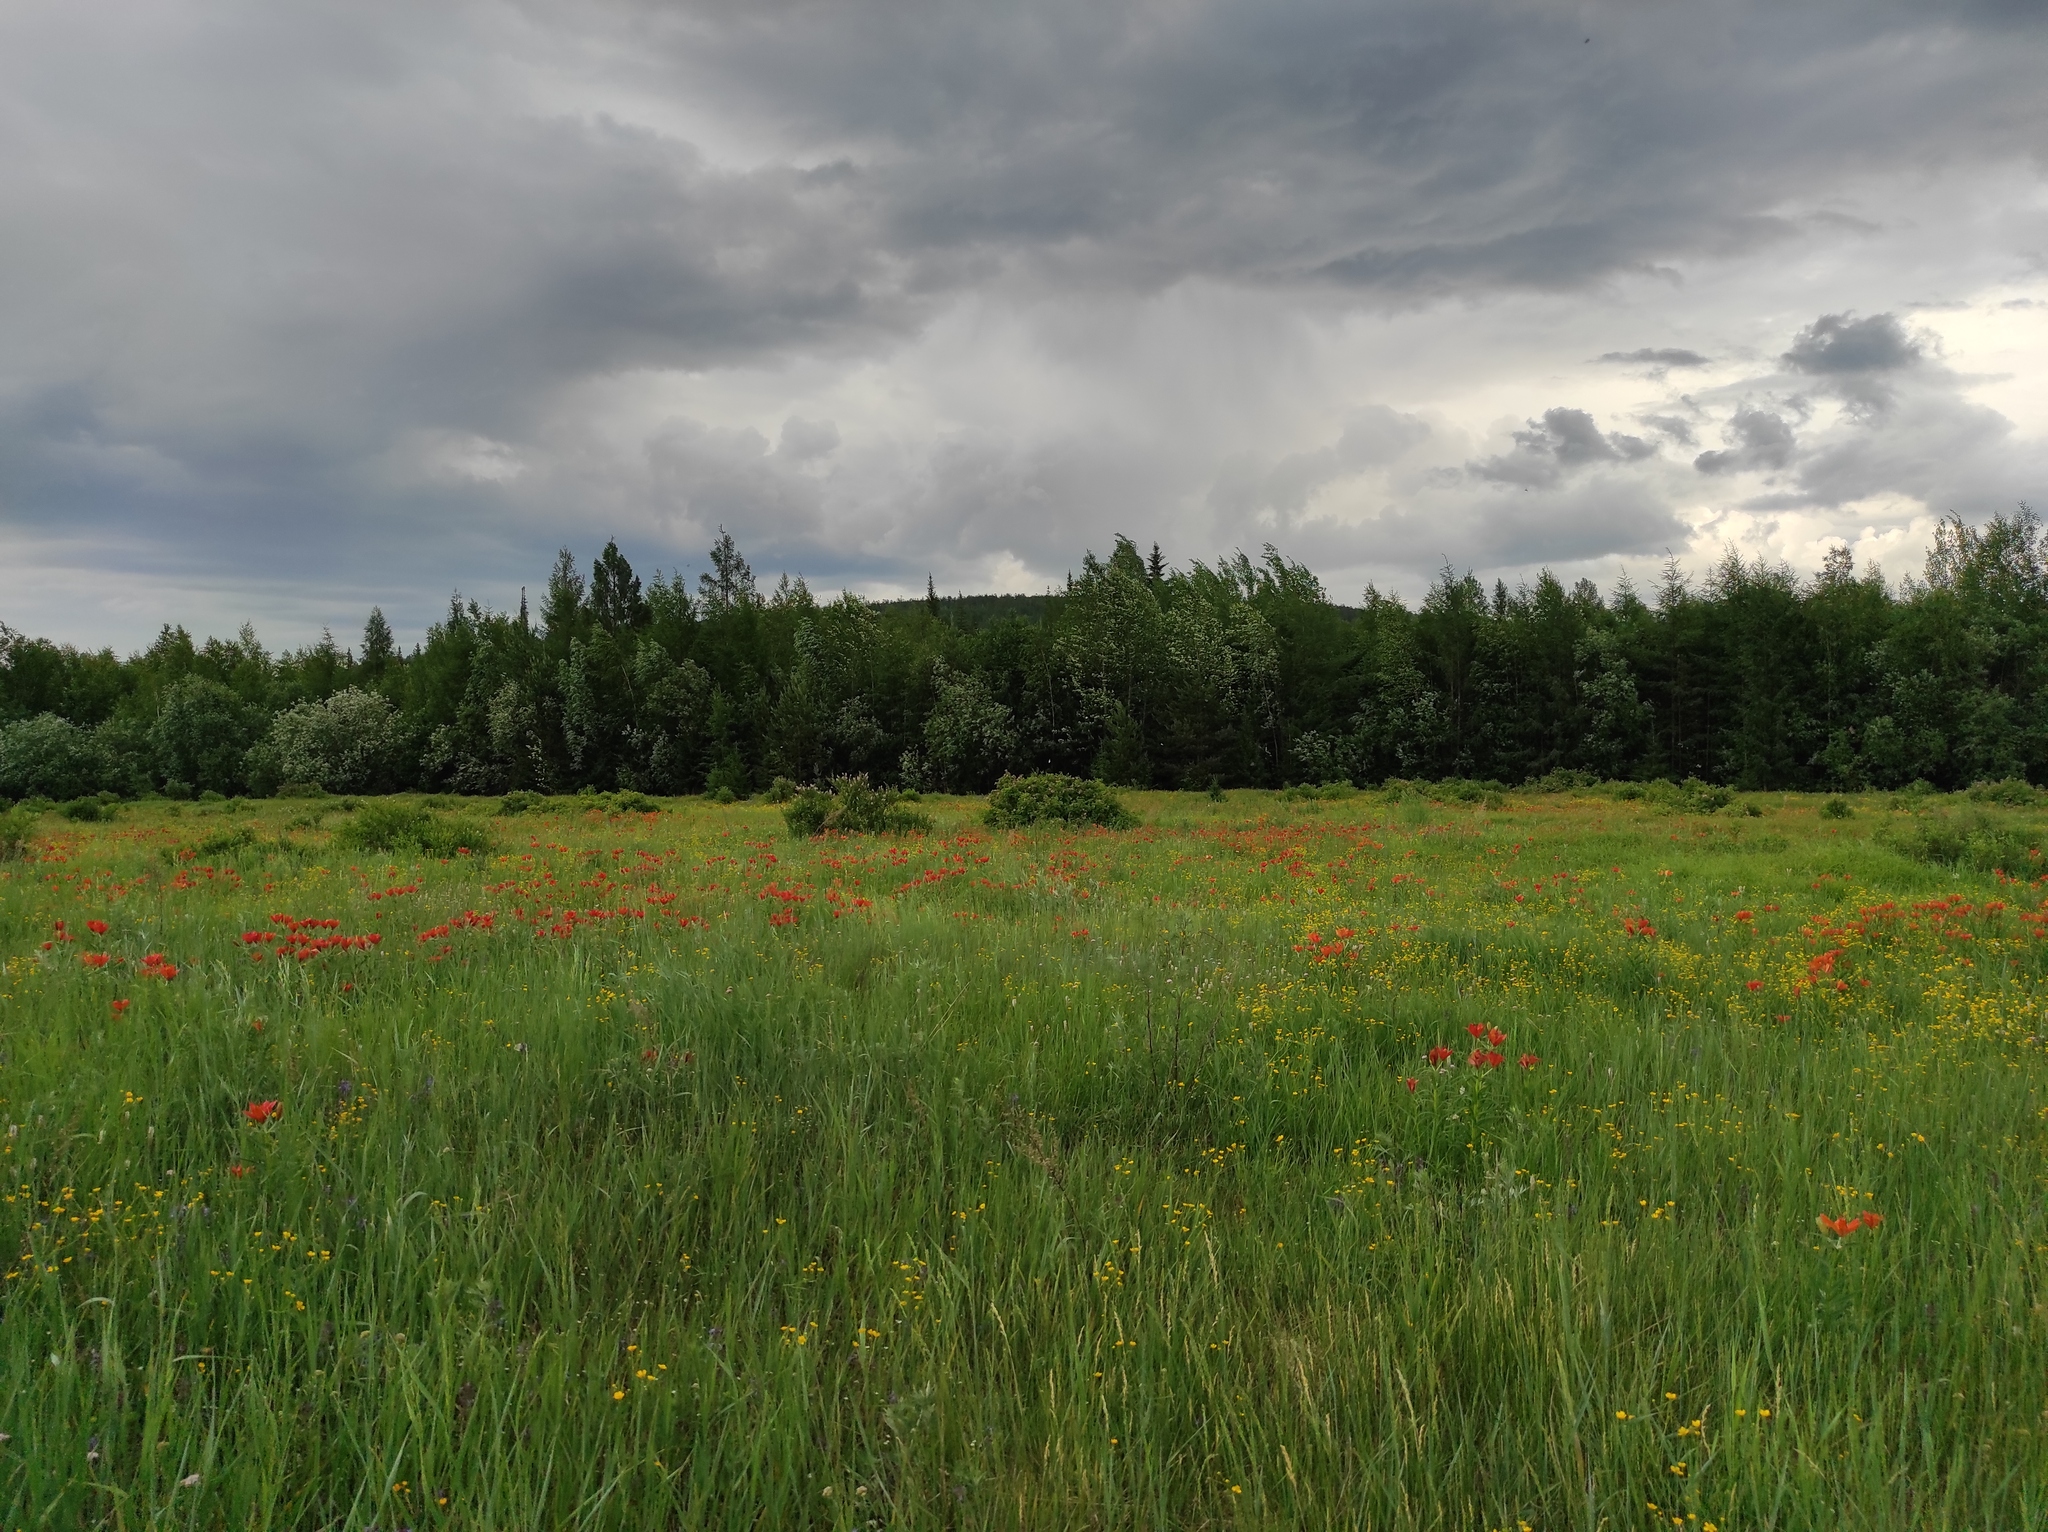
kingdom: Plantae
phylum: Tracheophyta
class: Liliopsida
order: Liliales
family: Liliaceae
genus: Lilium
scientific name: Lilium pensylvanicum
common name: Candlestick lily
